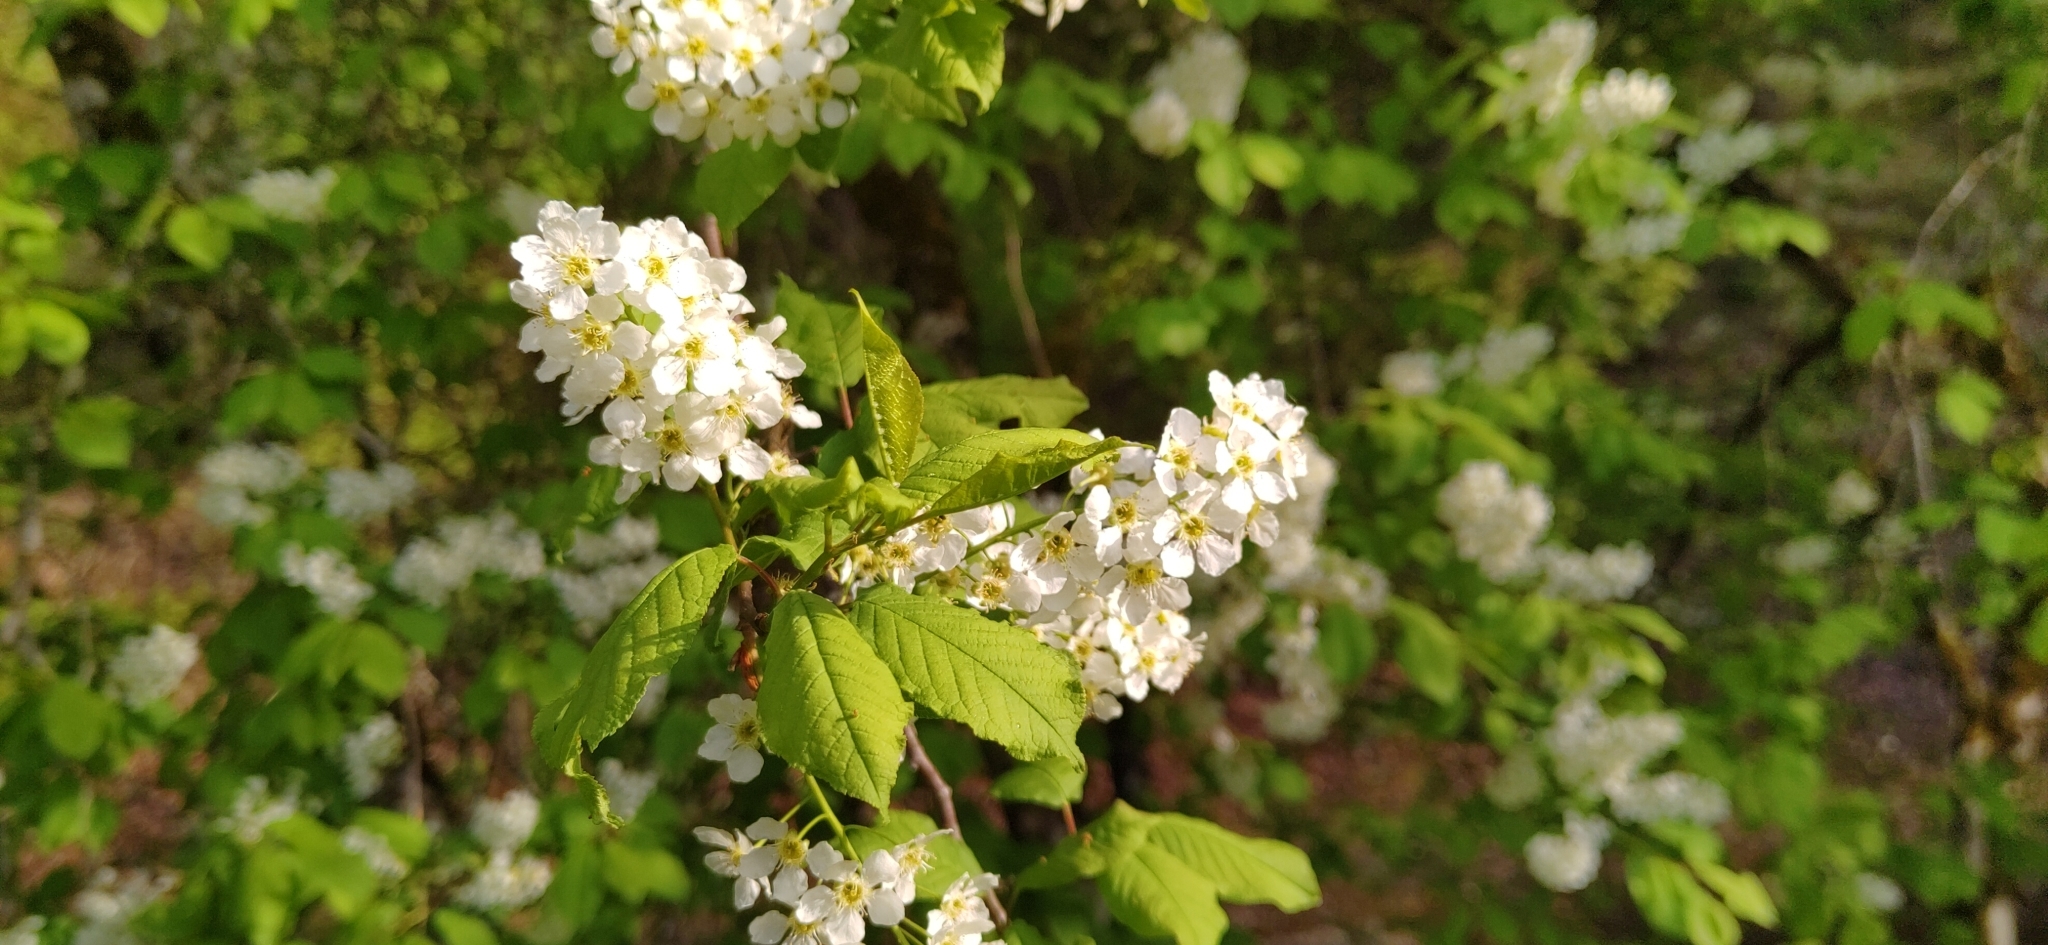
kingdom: Plantae
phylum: Tracheophyta
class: Magnoliopsida
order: Rosales
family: Rosaceae
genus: Prunus
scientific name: Prunus padus
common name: Bird cherry
